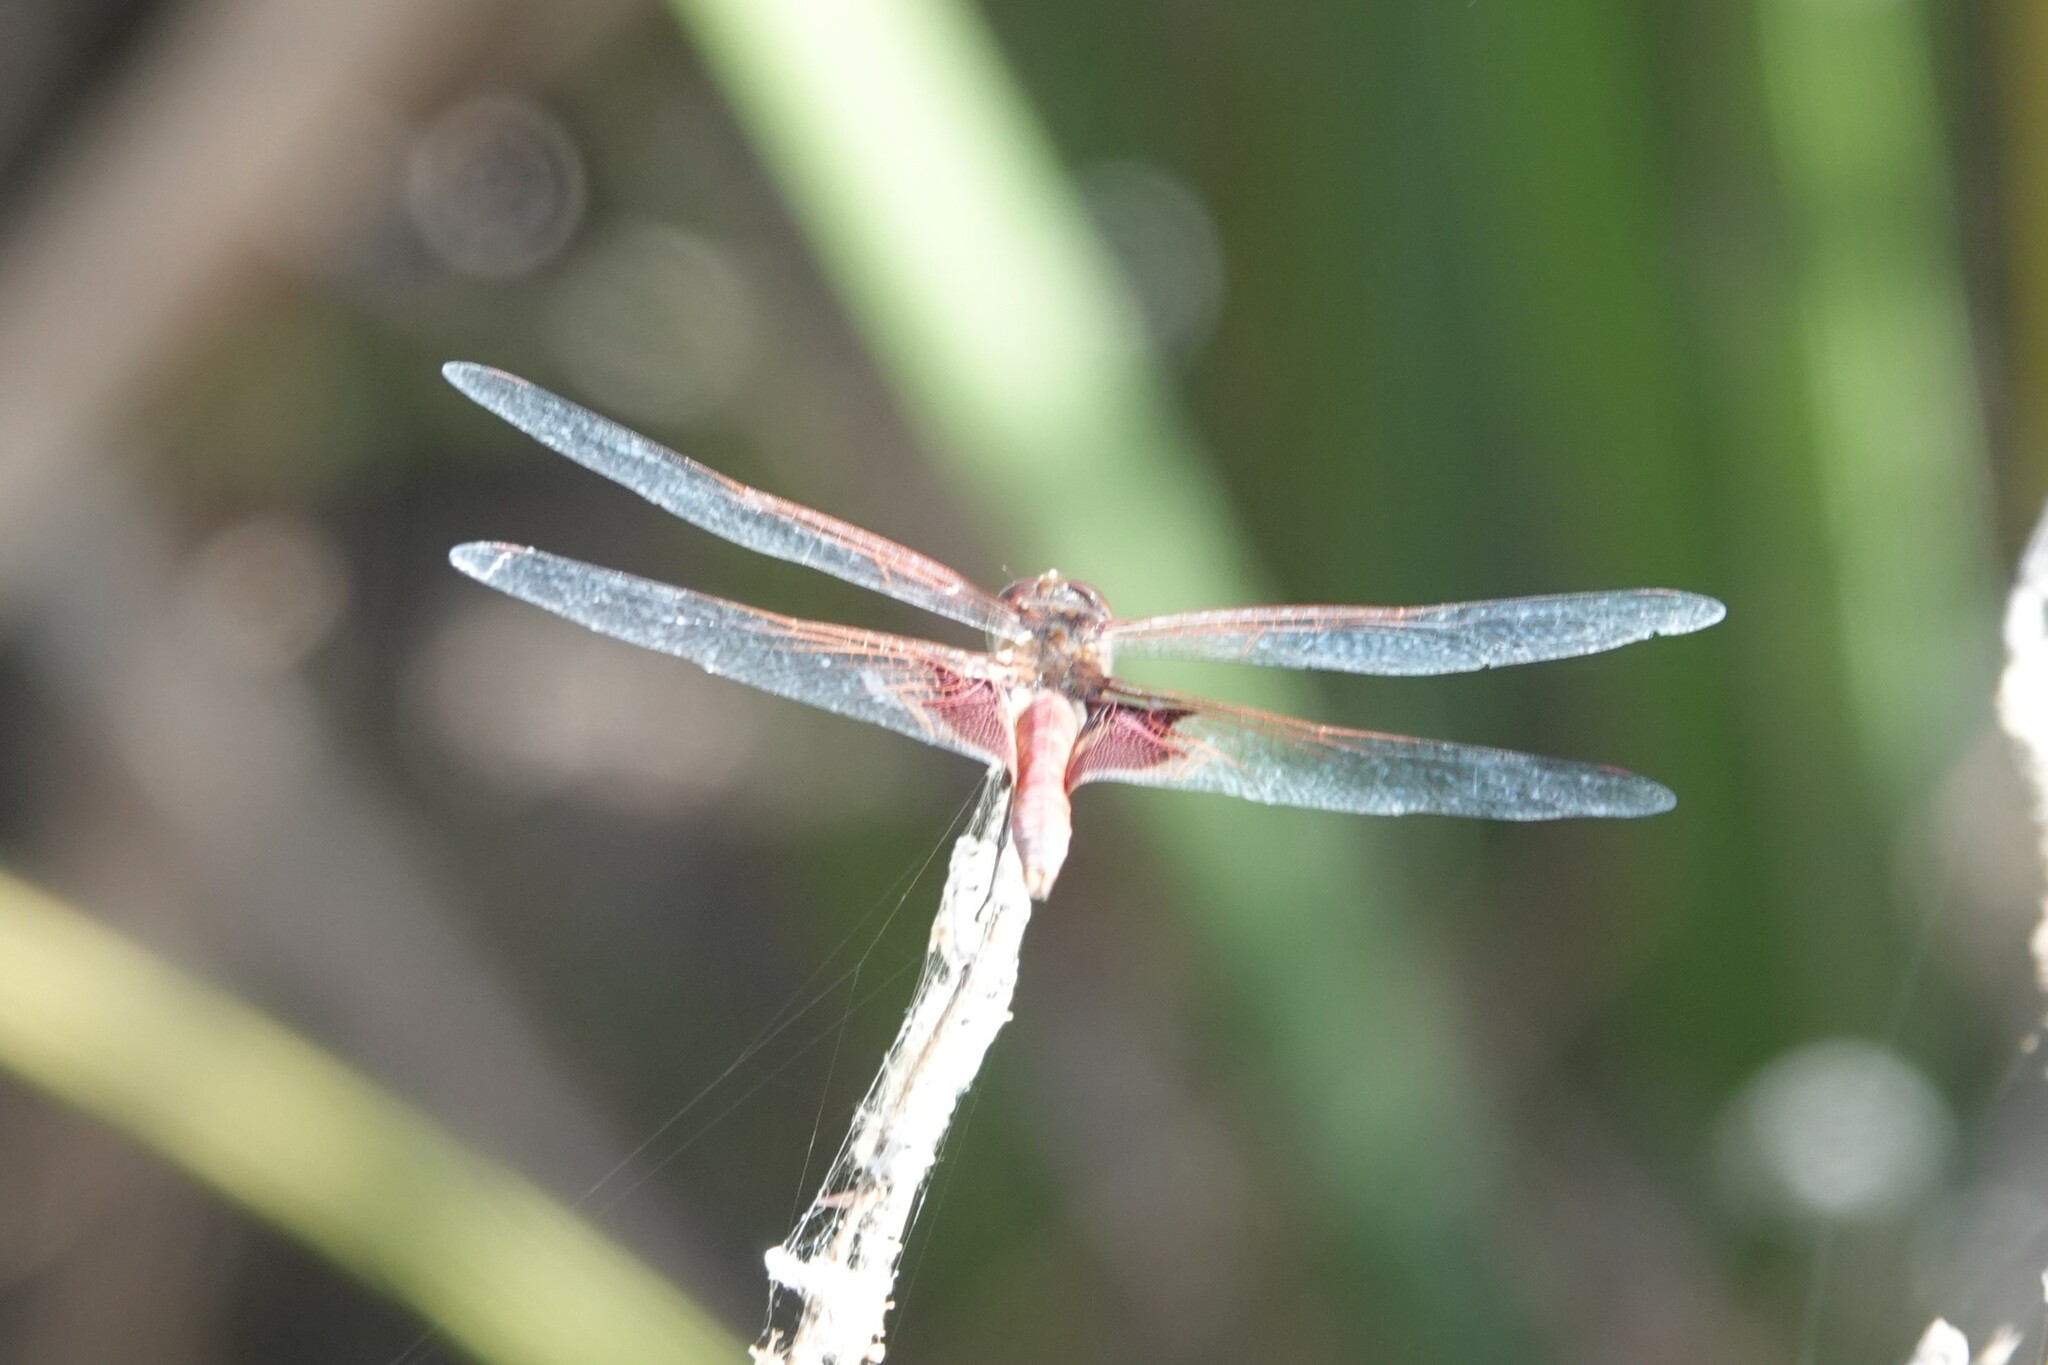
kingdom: Animalia
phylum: Arthropoda
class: Insecta
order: Odonata
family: Libellulidae
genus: Tramea
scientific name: Tramea onusta
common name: Red saddlebags
